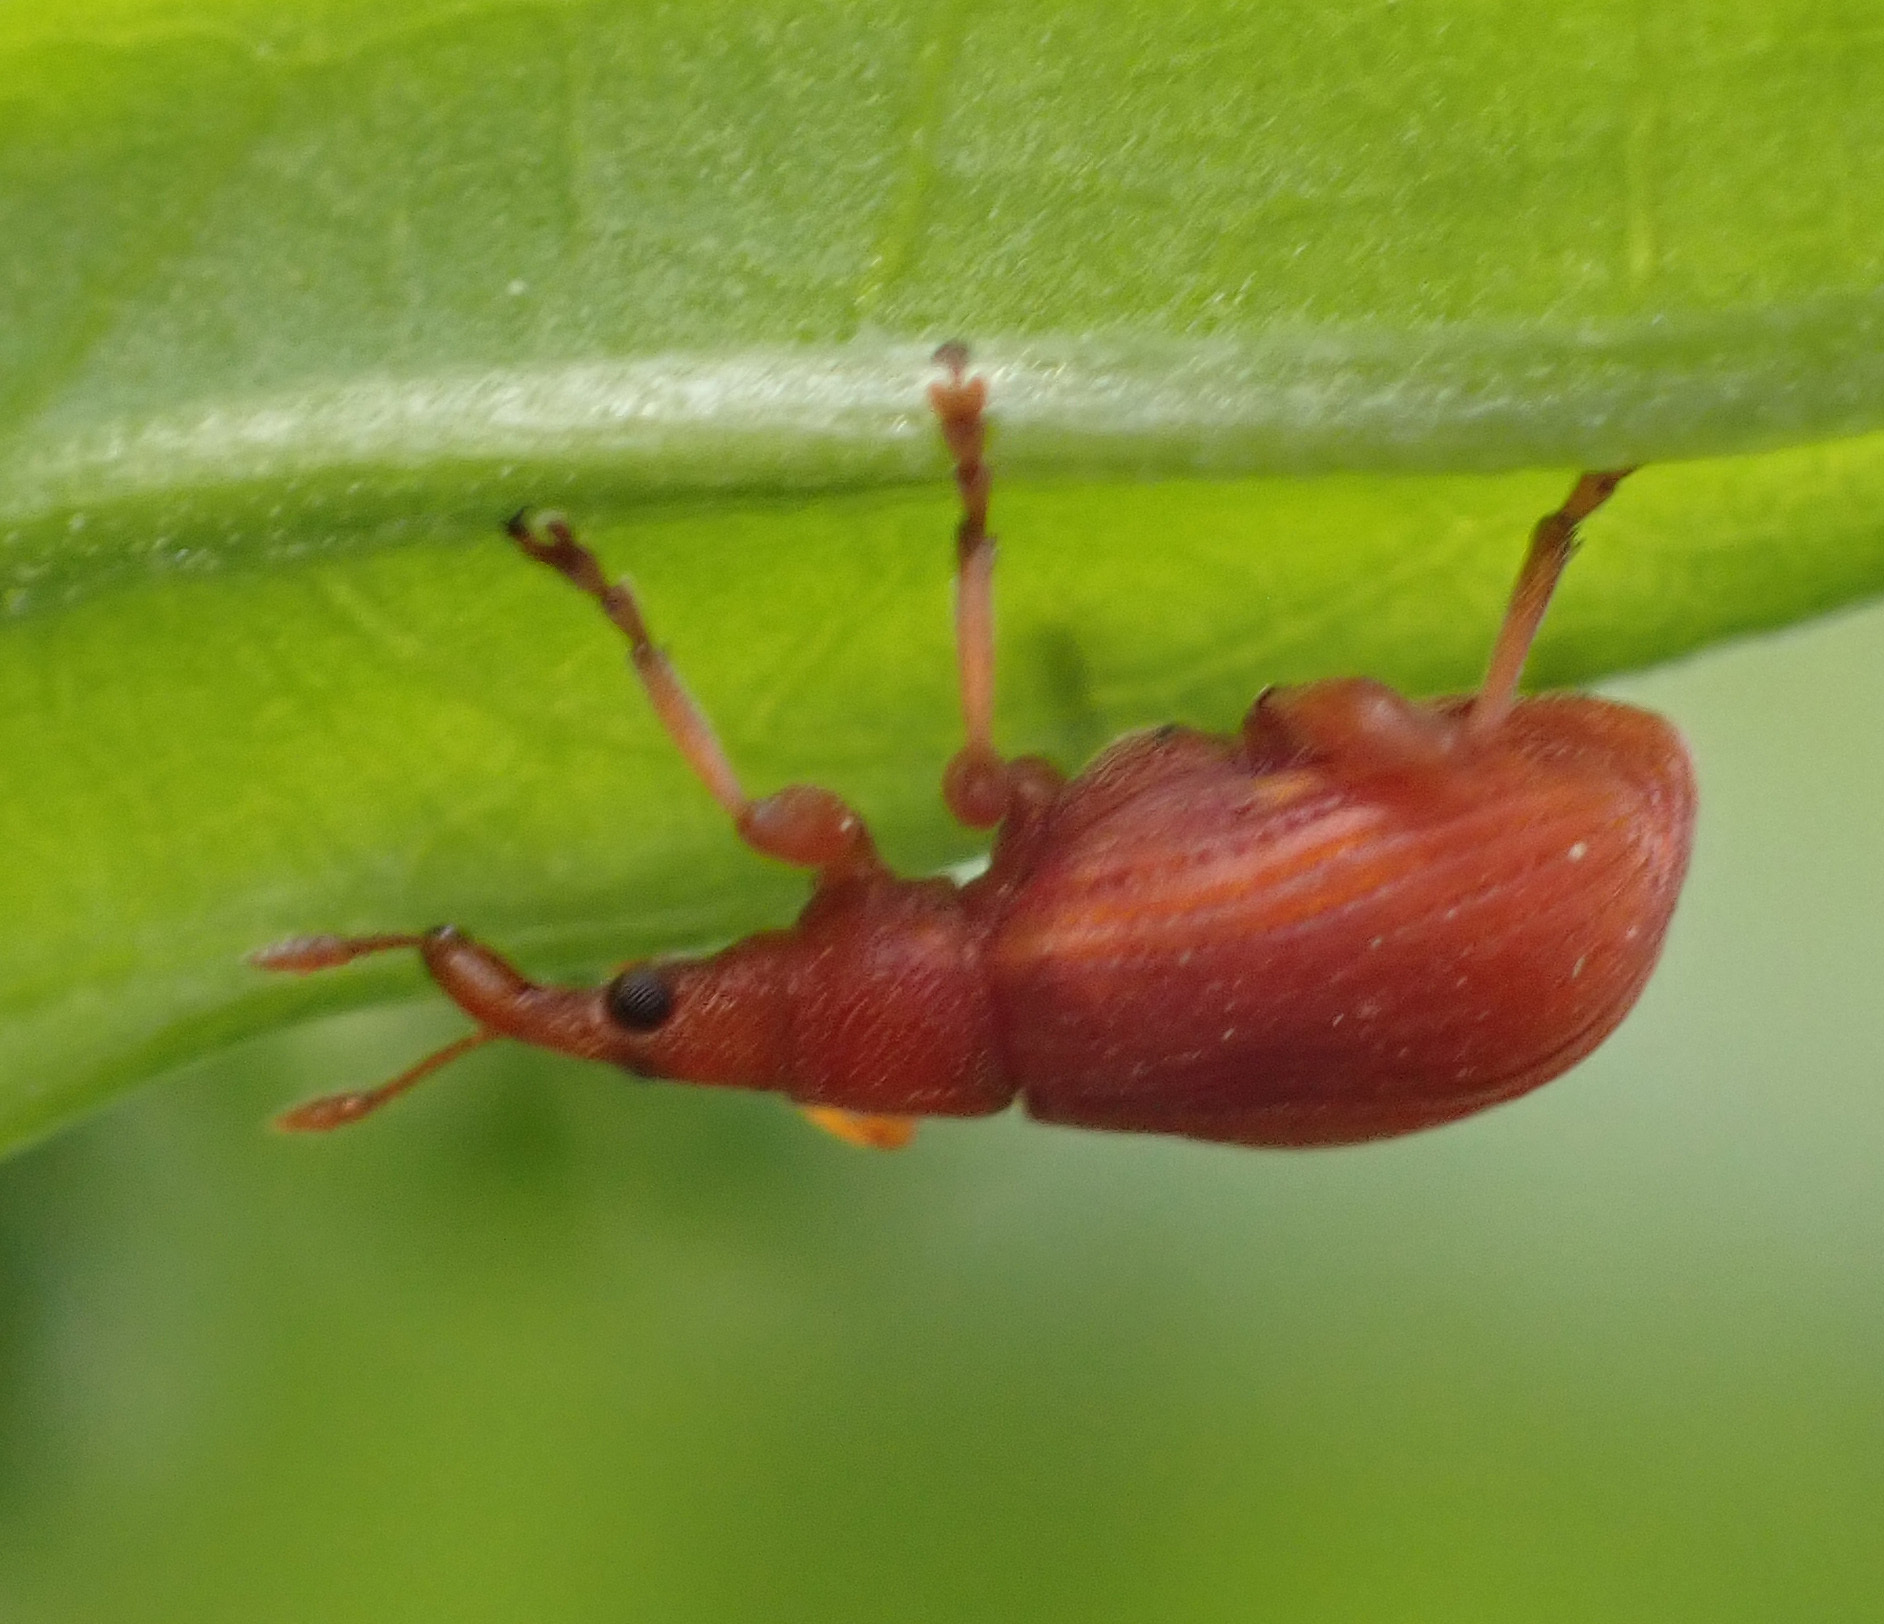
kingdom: Animalia
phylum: Arthropoda
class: Insecta
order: Coleoptera
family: Apionidae
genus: Apion
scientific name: Apion frumentarium
